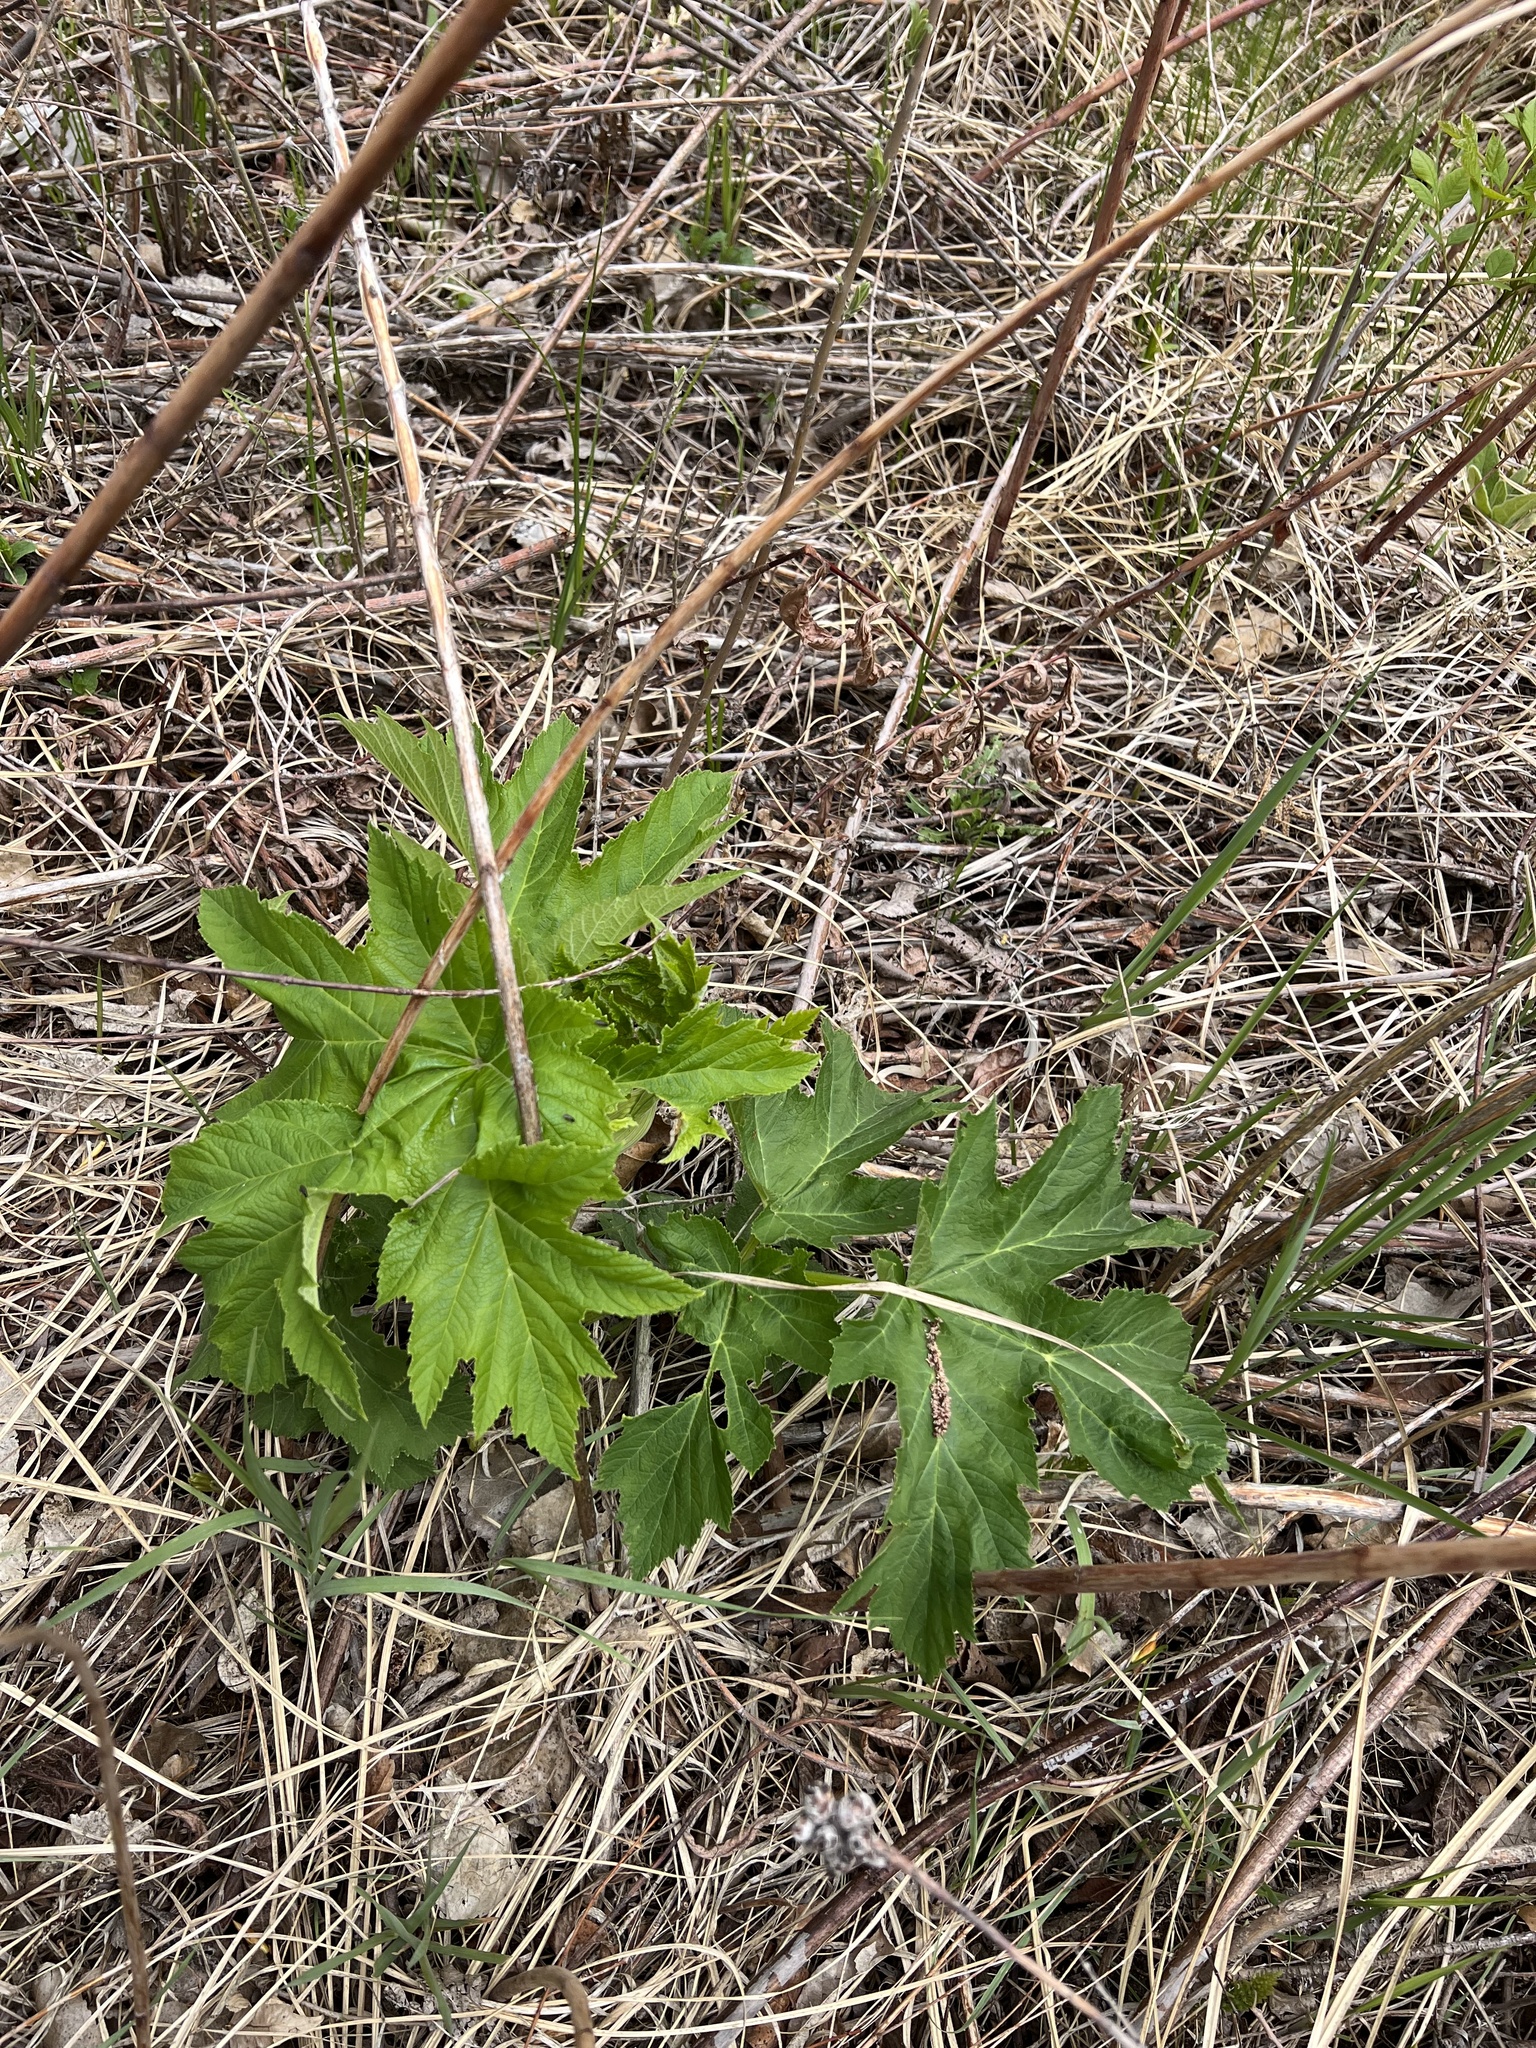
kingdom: Plantae
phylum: Tracheophyta
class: Magnoliopsida
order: Apiales
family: Apiaceae
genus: Heracleum
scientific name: Heracleum maximum
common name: American cow parsnip
